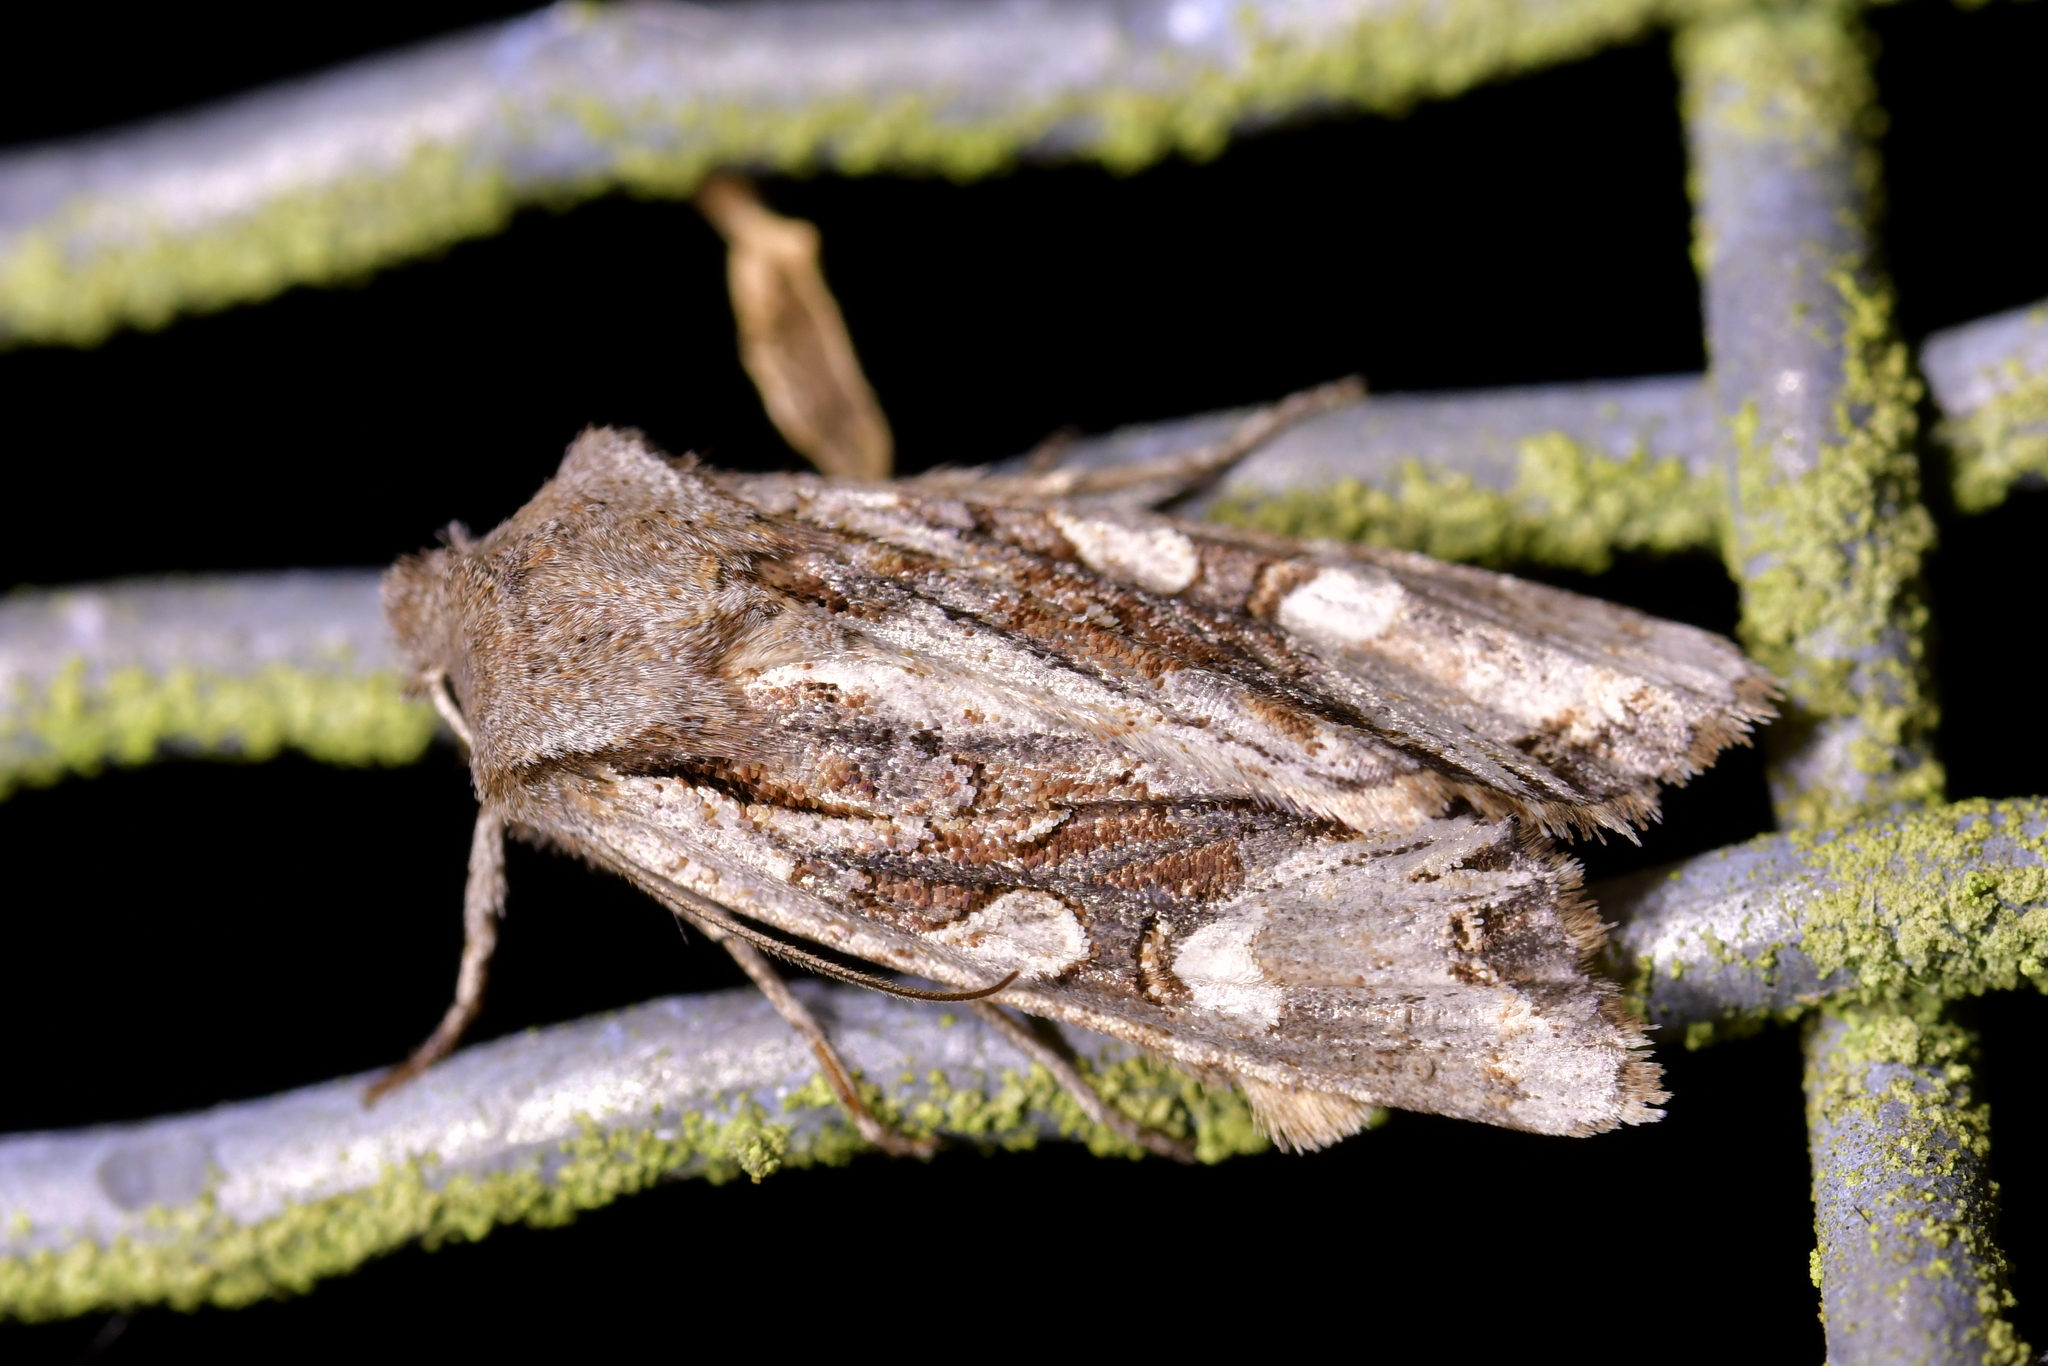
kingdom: Animalia
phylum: Arthropoda
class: Insecta
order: Lepidoptera
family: Noctuidae
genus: Ichneutica
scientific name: Ichneutica
